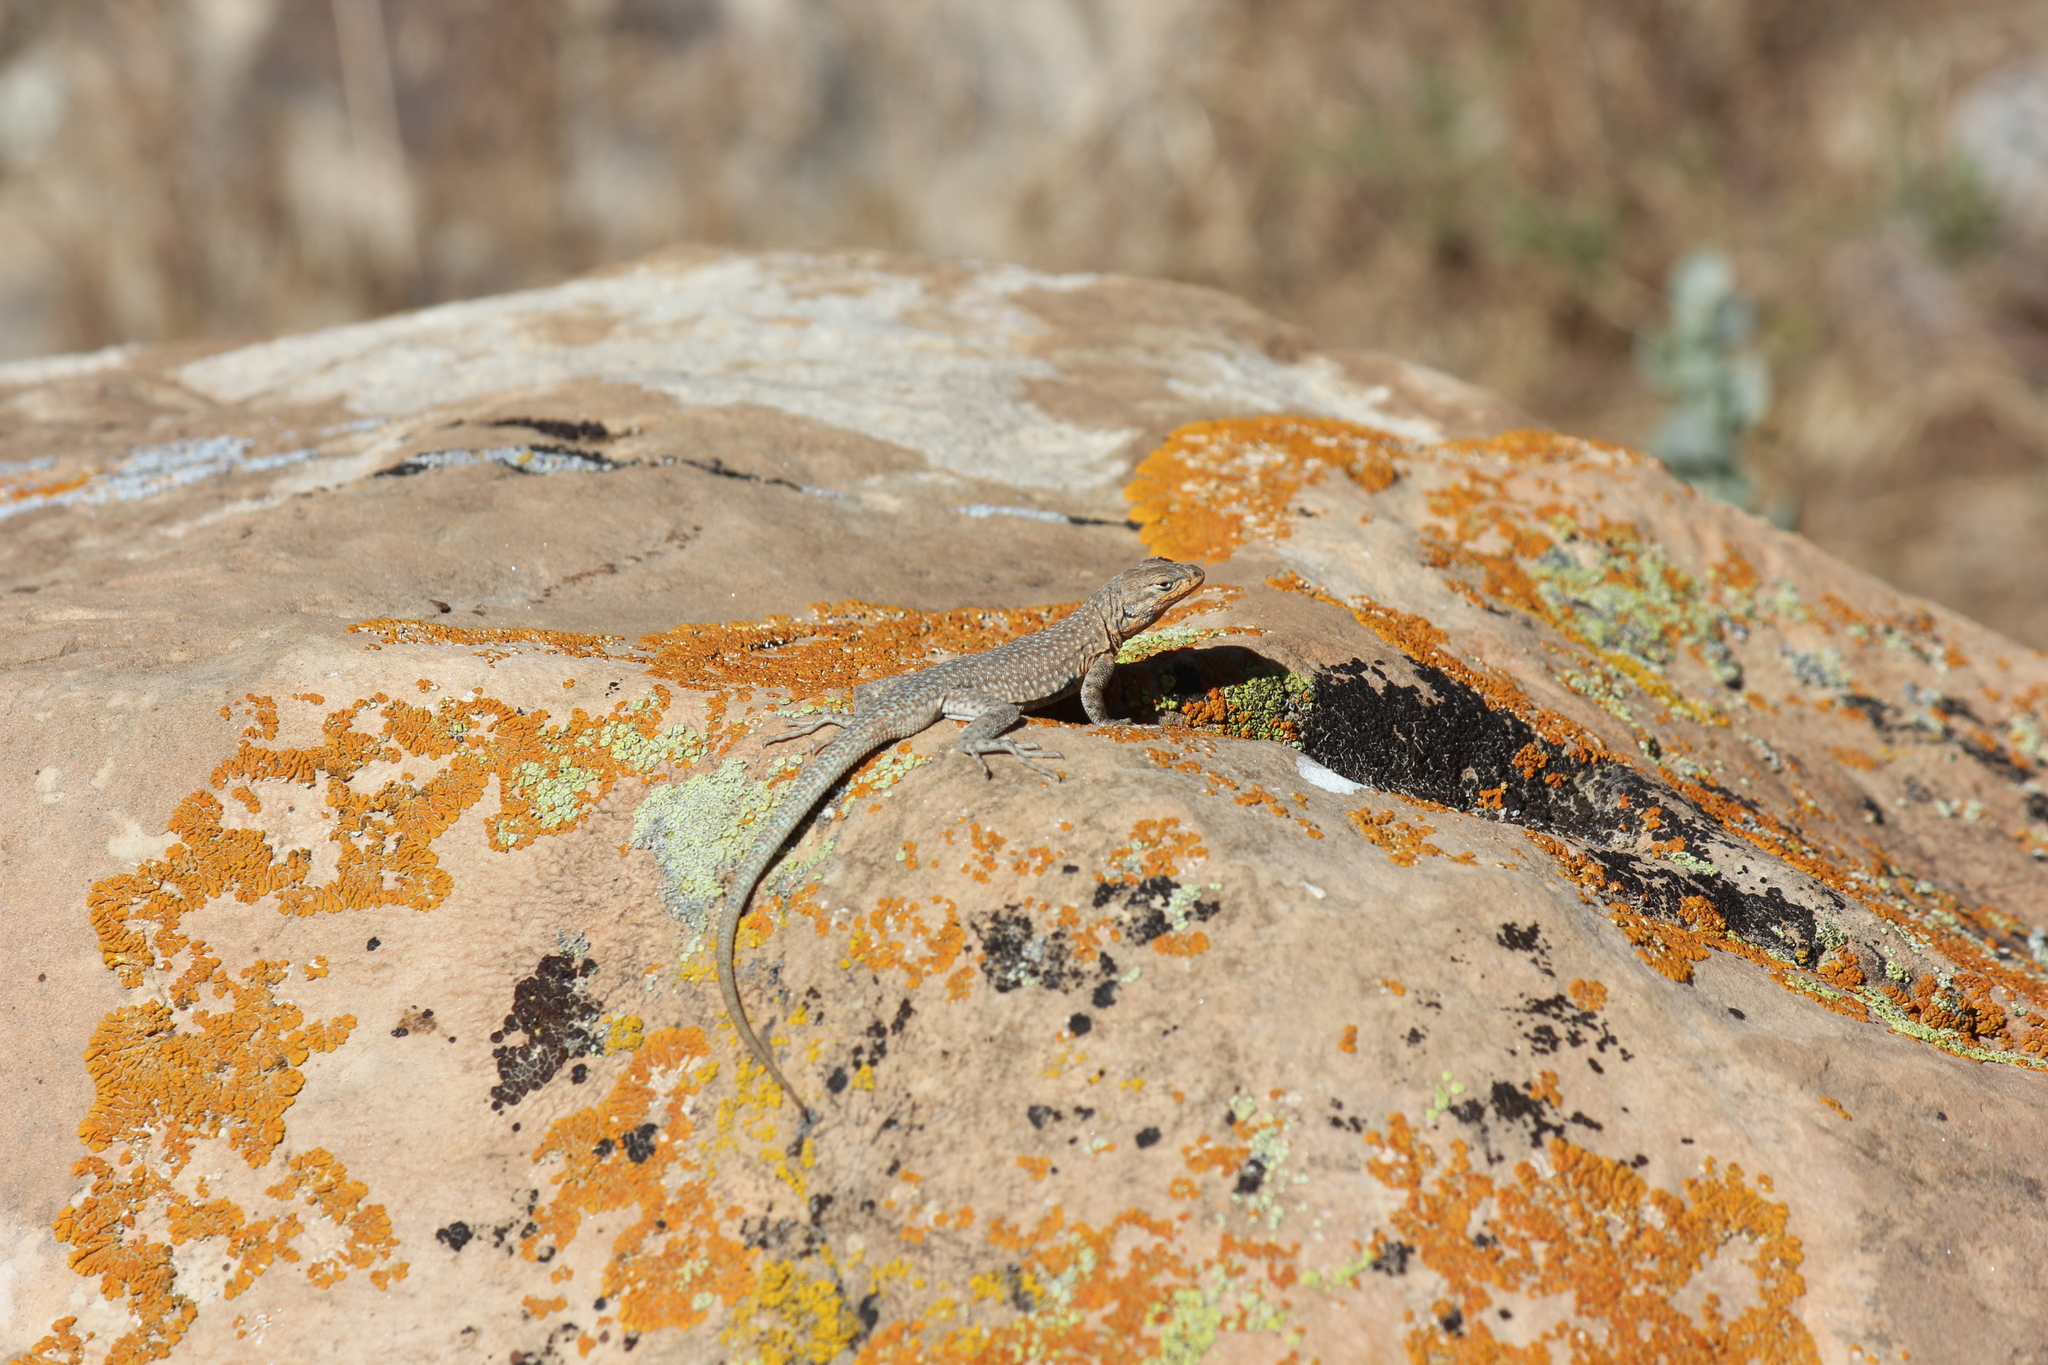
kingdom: Animalia
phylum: Chordata
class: Squamata
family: Phrynosomatidae
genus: Uta
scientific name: Uta stansburiana
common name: Side-blotched lizard
